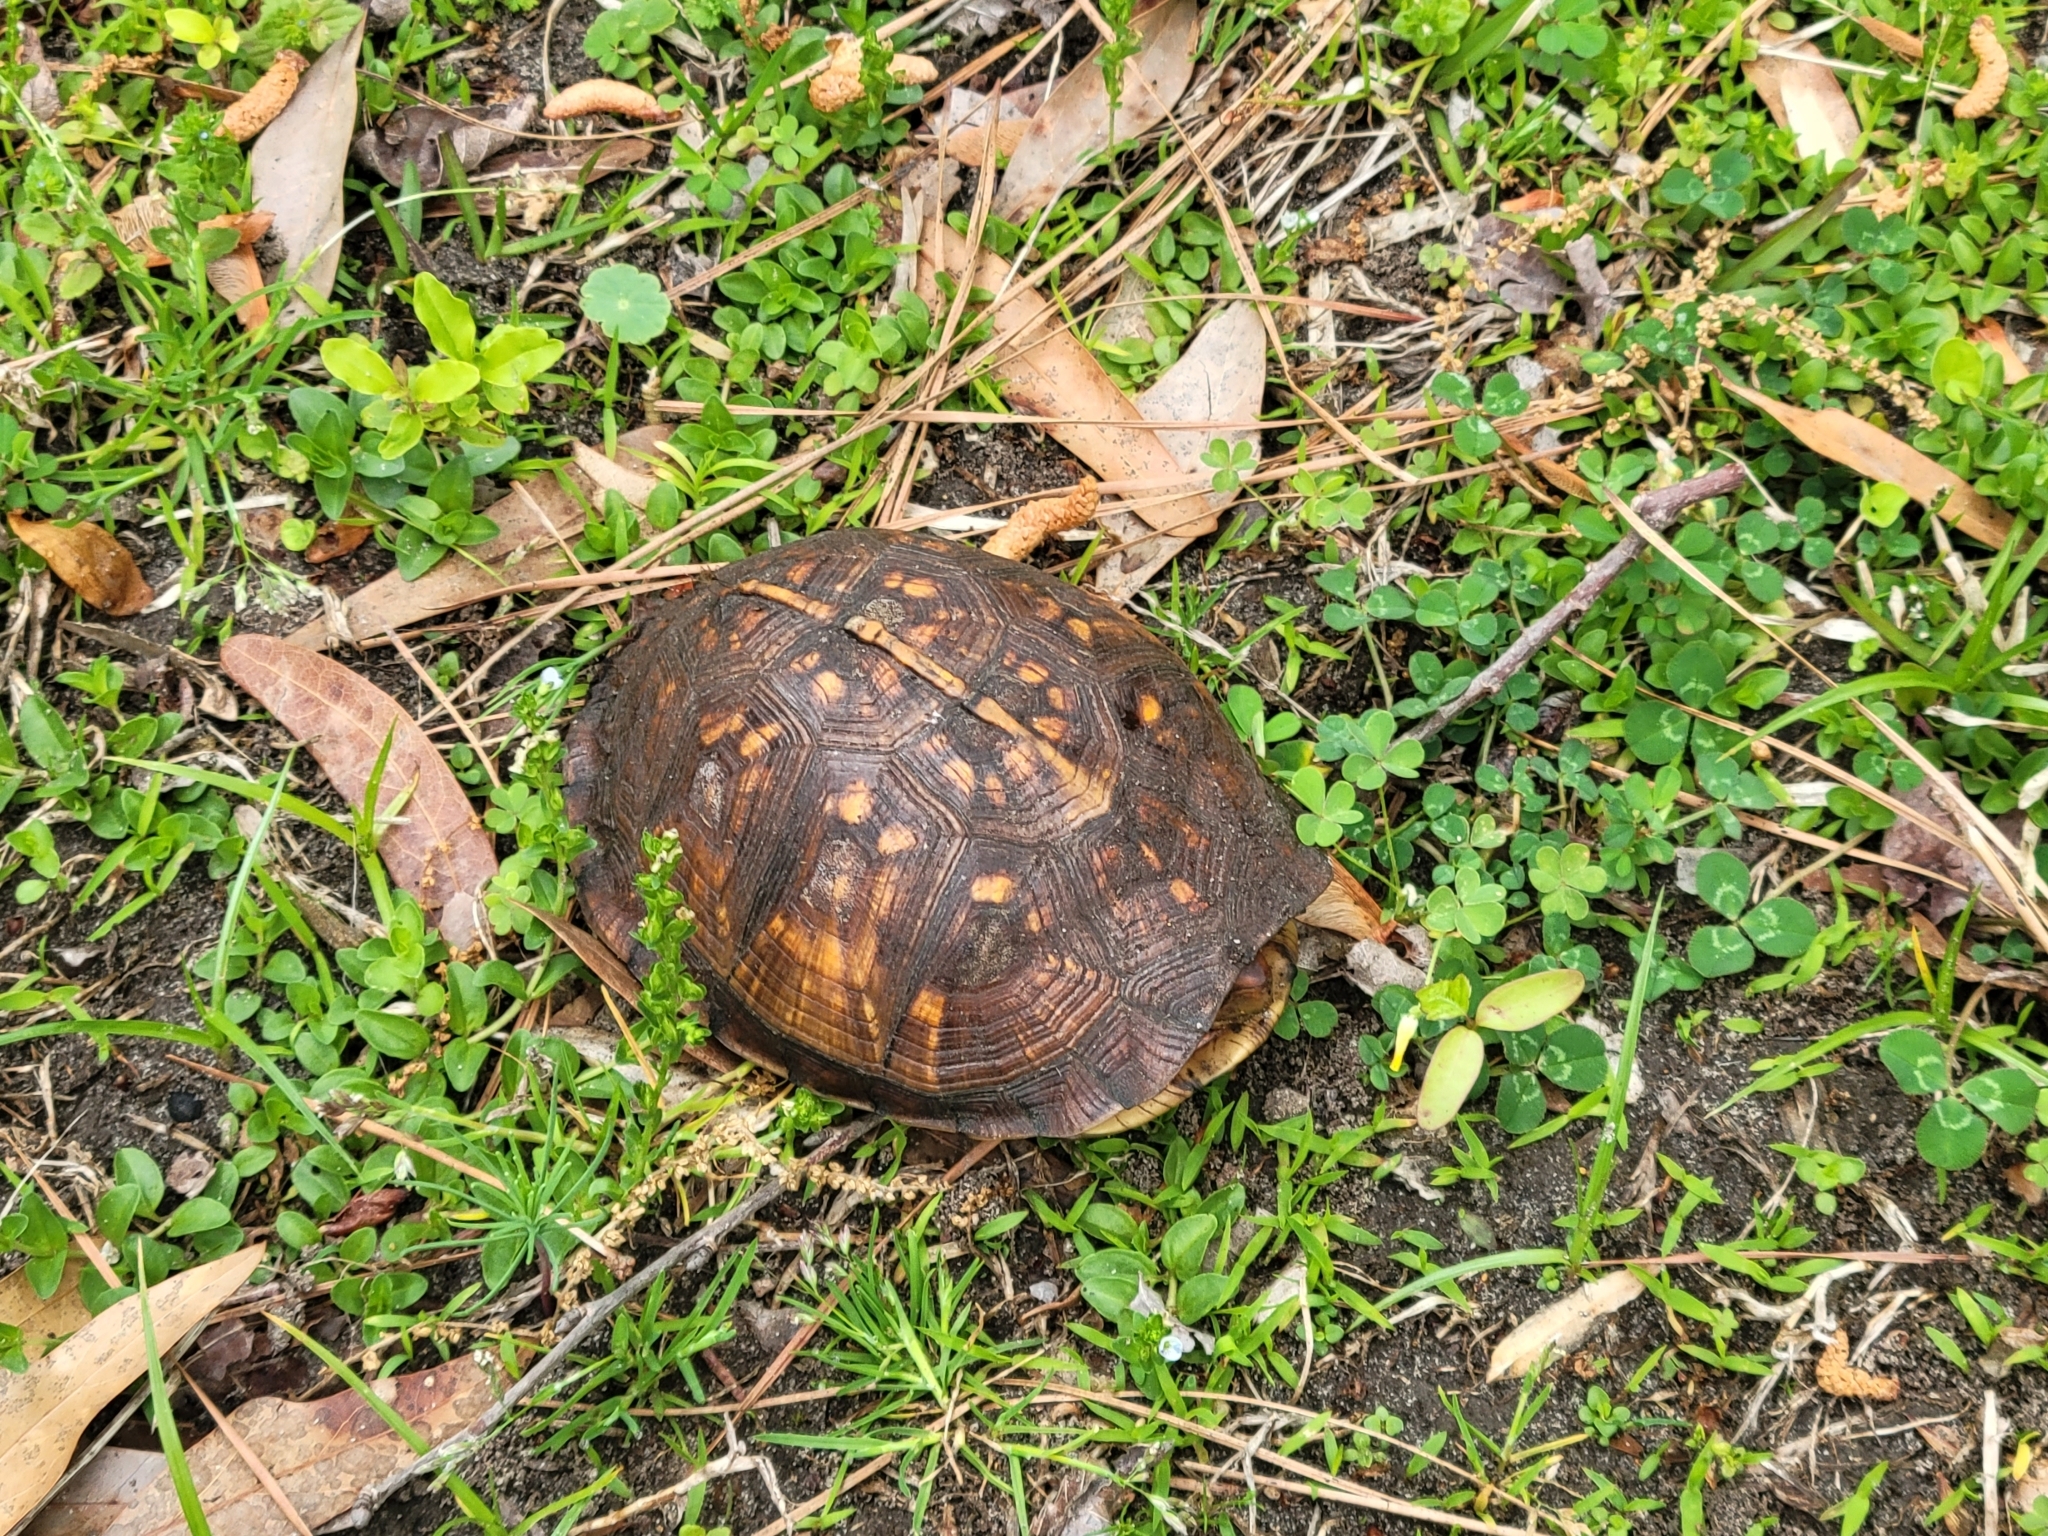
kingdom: Animalia
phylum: Chordata
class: Testudines
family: Emydidae
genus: Terrapene
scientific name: Terrapene carolina
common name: Common box turtle
